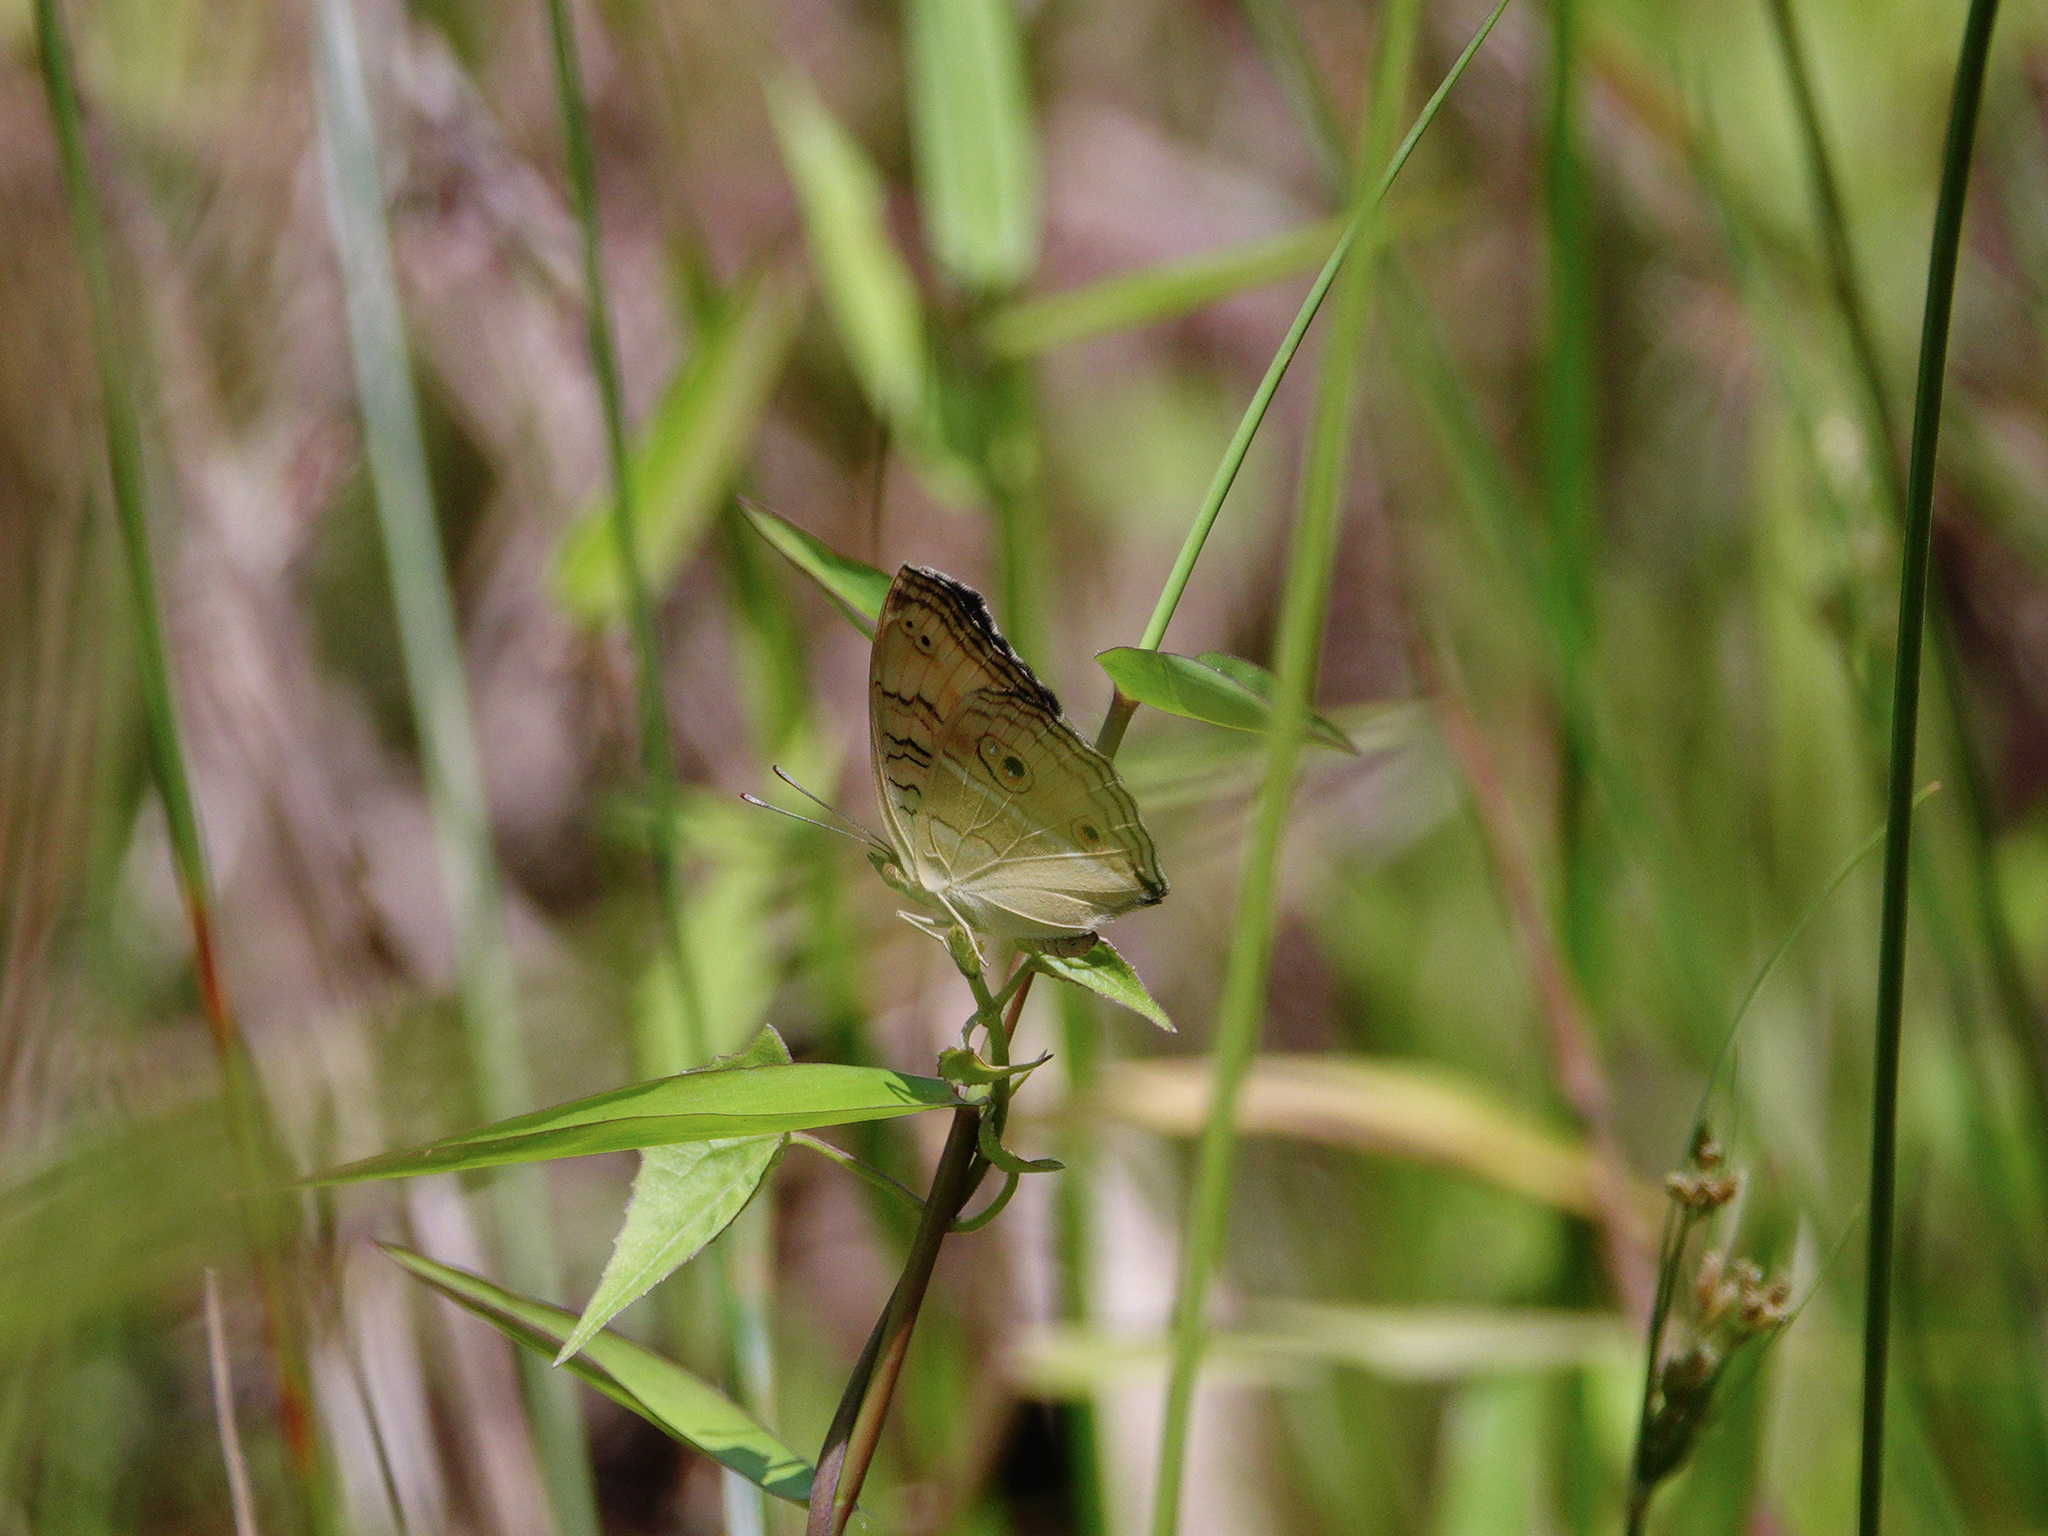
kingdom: Animalia
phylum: Arthropoda
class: Insecta
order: Lepidoptera
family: Nymphalidae
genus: Junonia
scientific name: Junonia almana
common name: Peacock pansy
